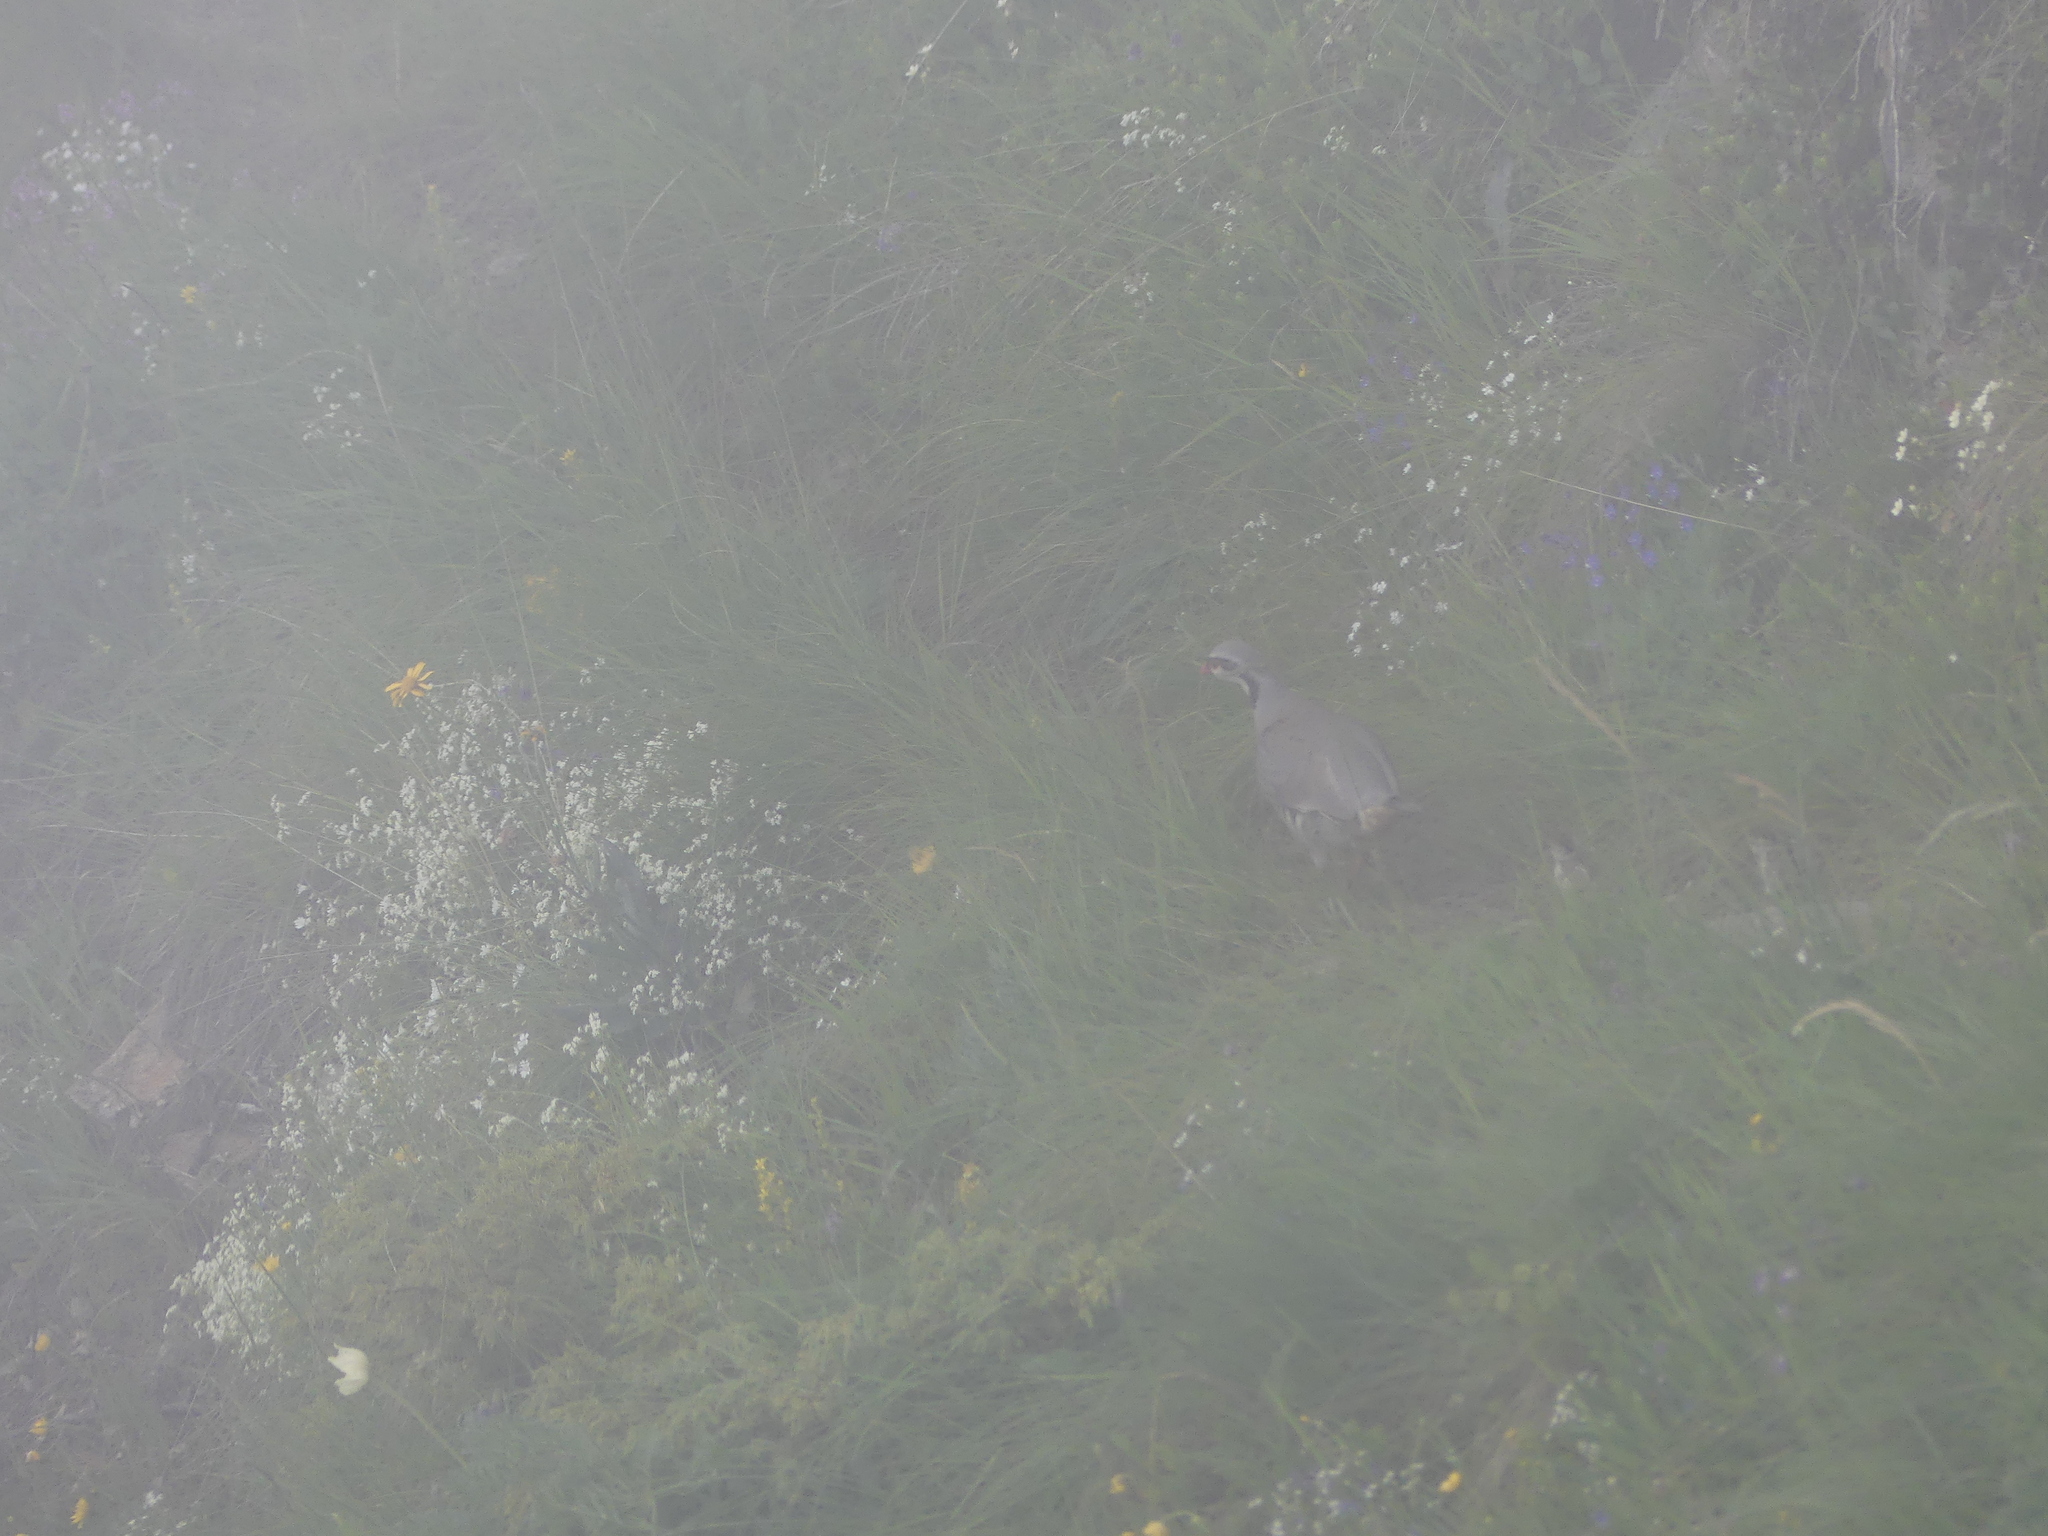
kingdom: Animalia
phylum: Chordata
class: Aves
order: Galliformes
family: Phasianidae
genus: Alectoris
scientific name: Alectoris graeca
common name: Rock partridge
